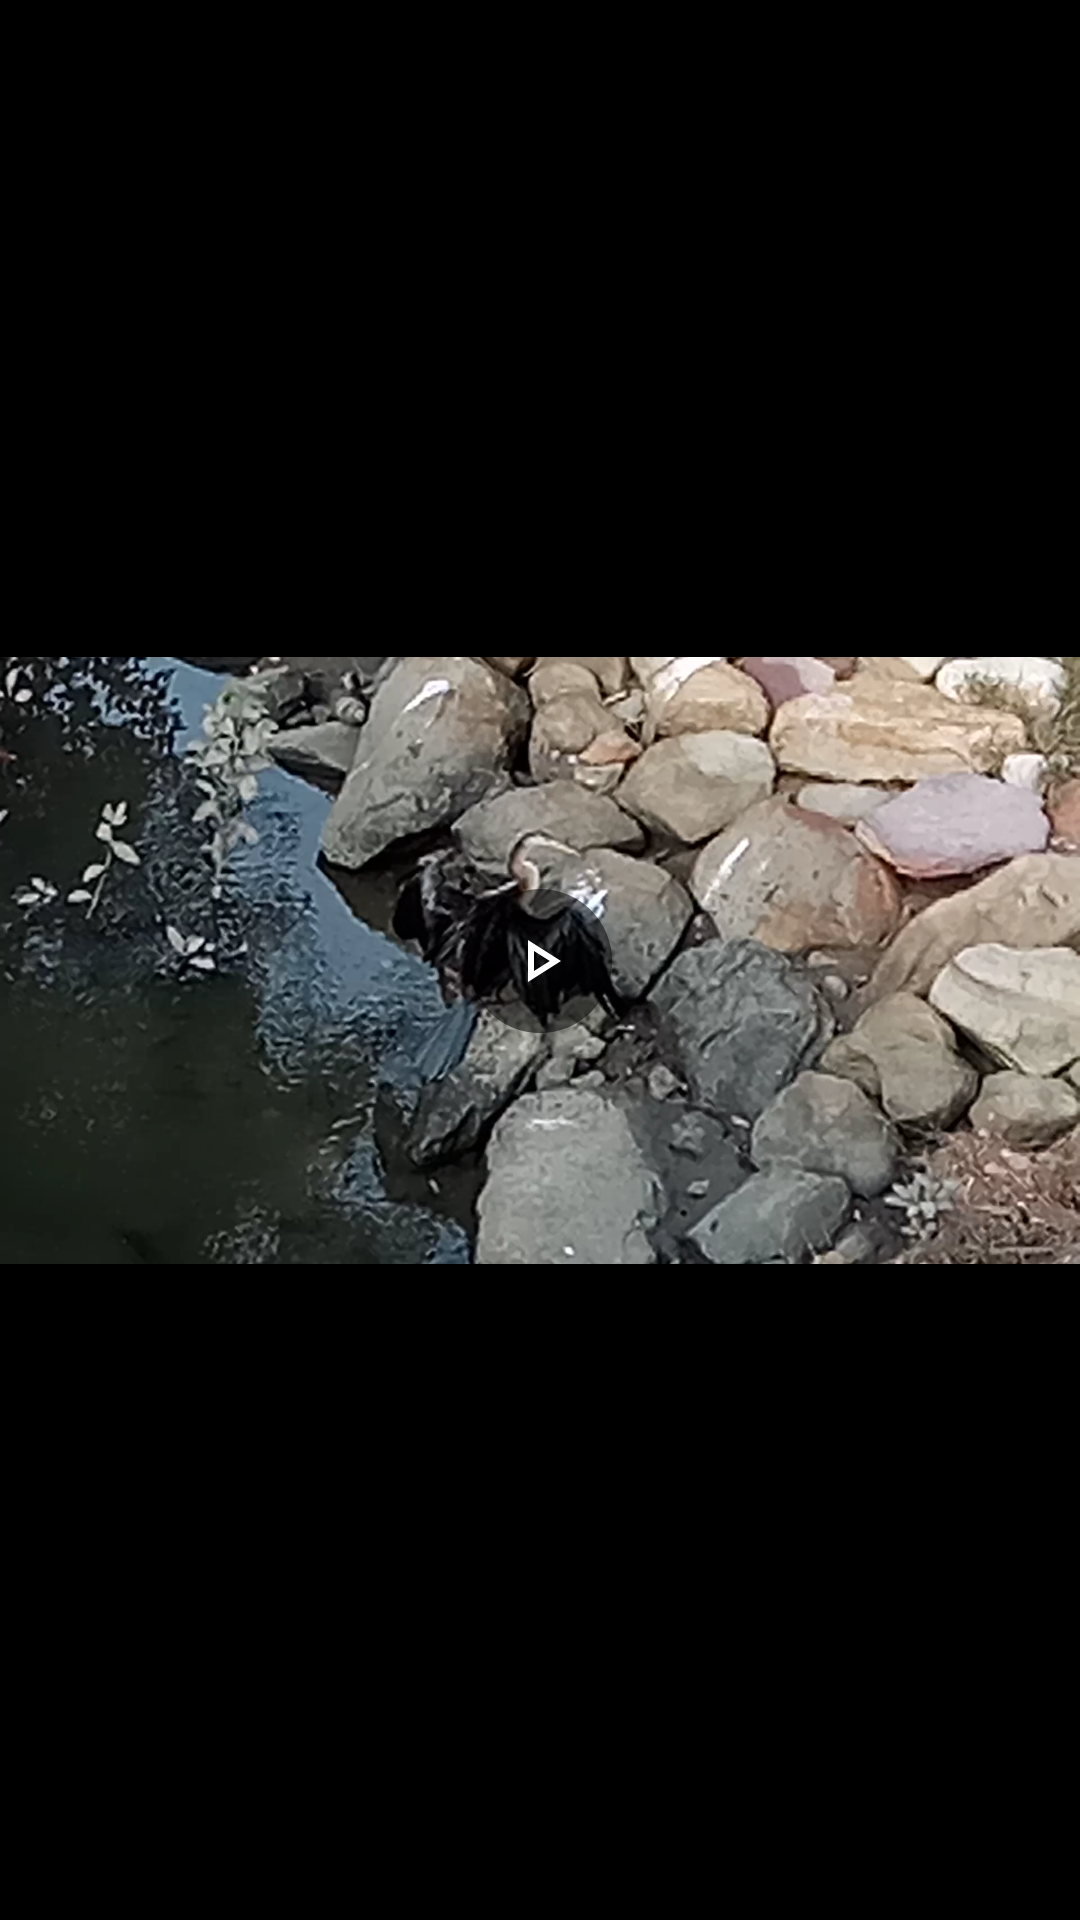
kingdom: Animalia
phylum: Chordata
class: Aves
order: Suliformes
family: Anhingidae
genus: Anhinga
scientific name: Anhinga novaehollandiae
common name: Australasian darter
